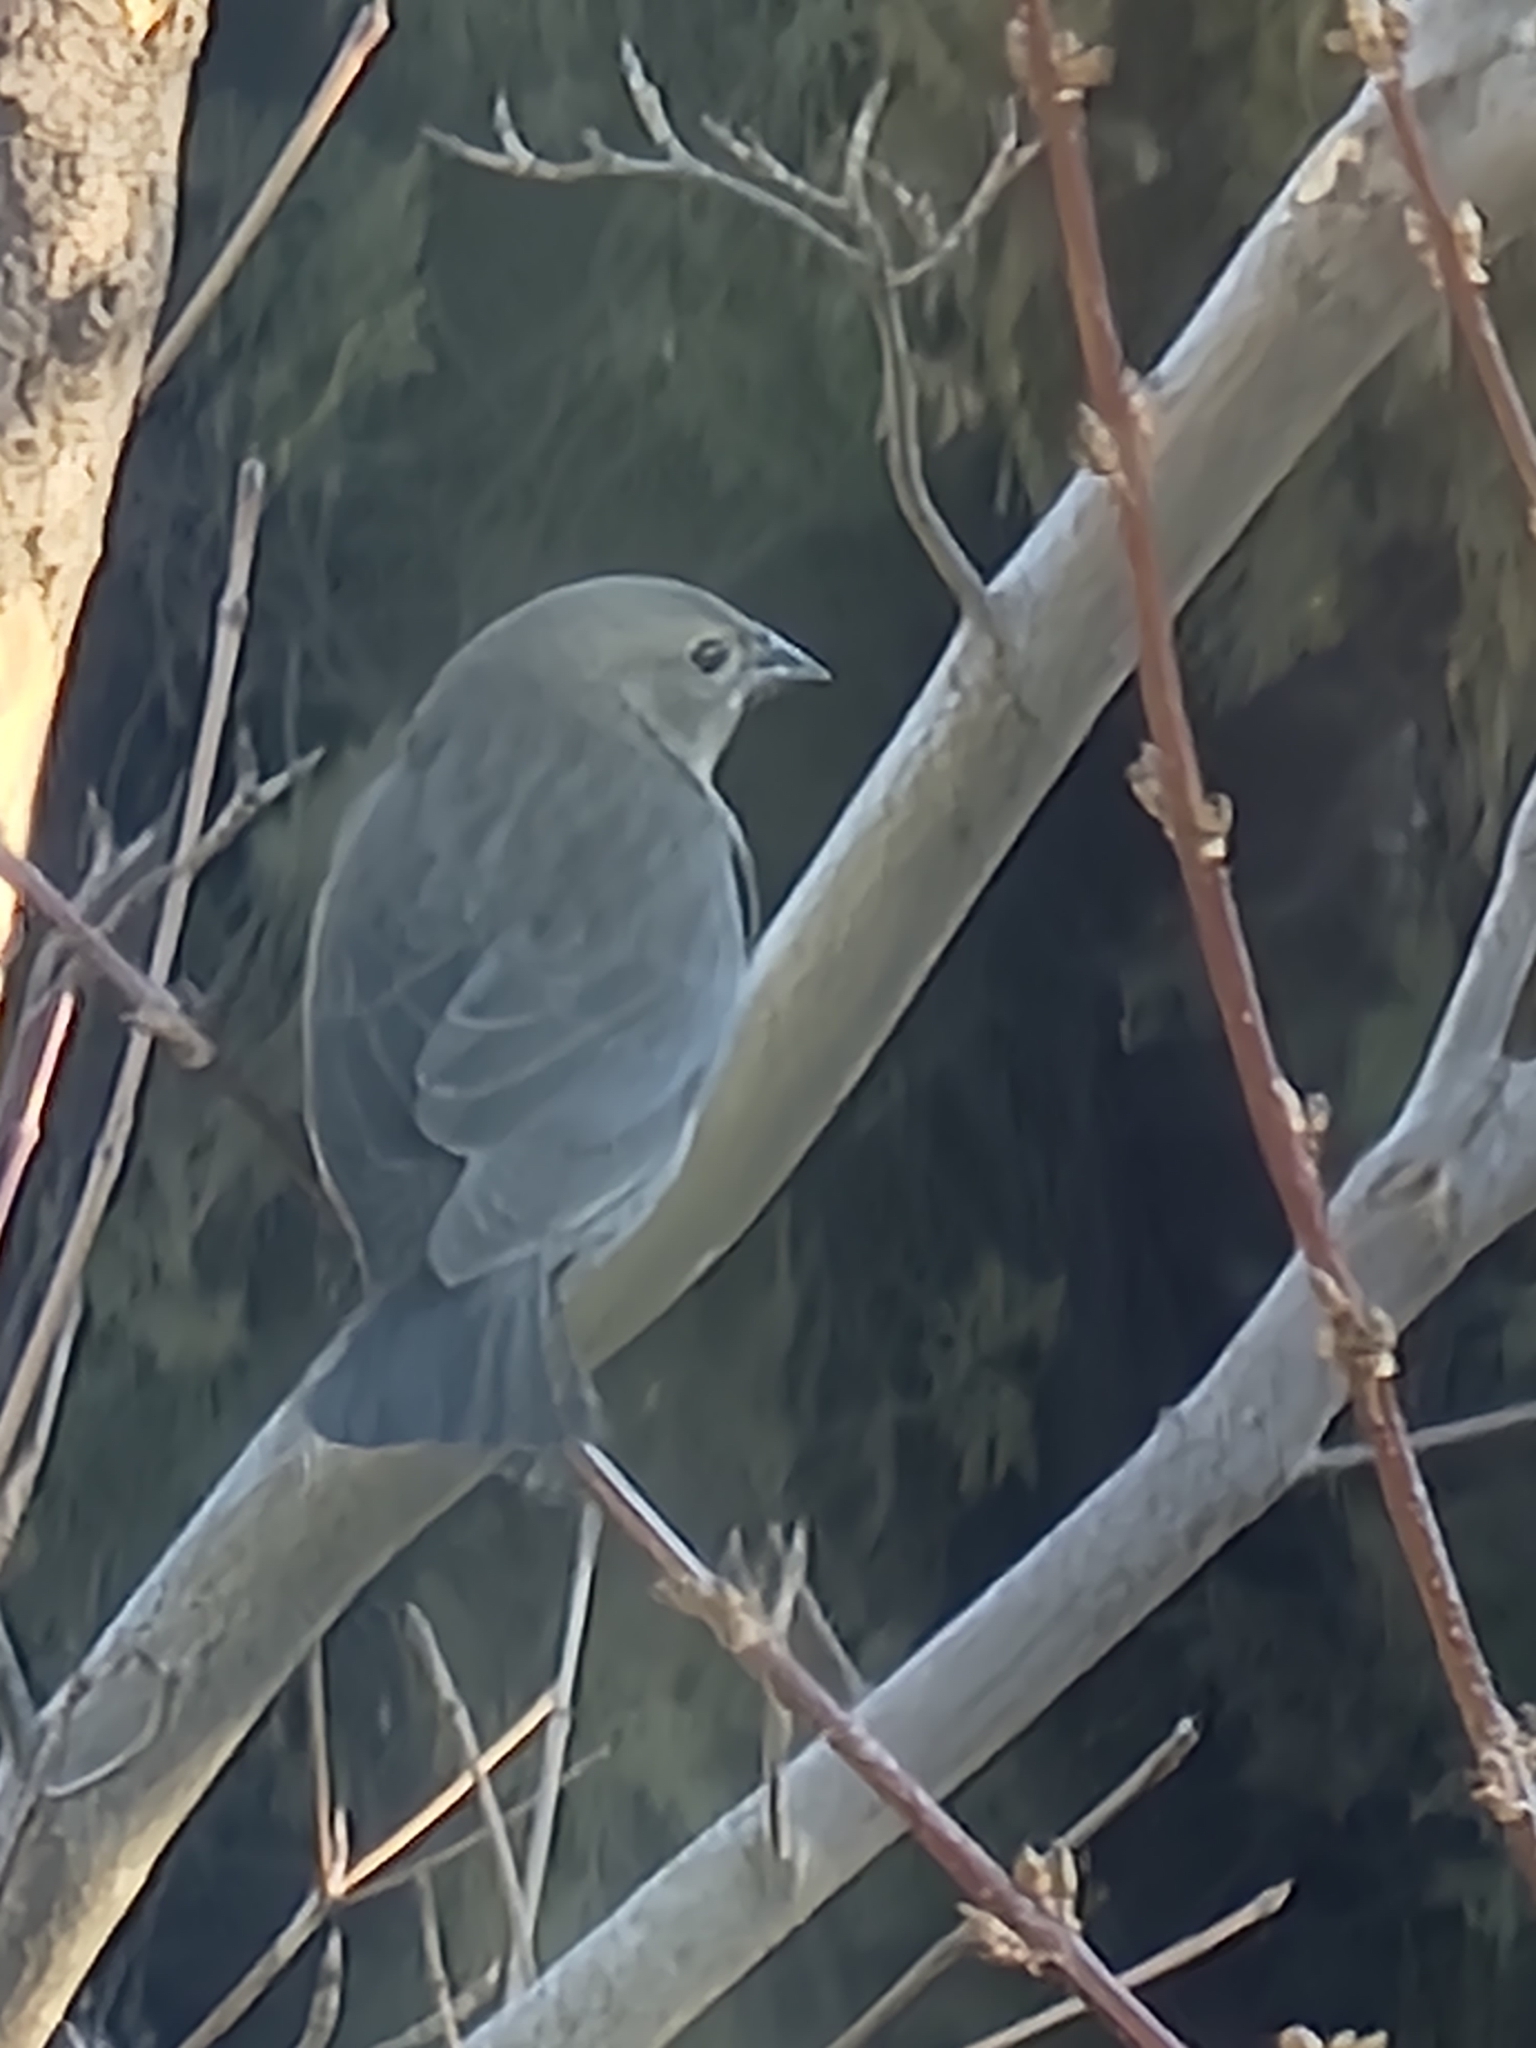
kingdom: Animalia
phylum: Chordata
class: Aves
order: Passeriformes
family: Icteridae
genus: Molothrus
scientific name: Molothrus ater
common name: Brown-headed cowbird
